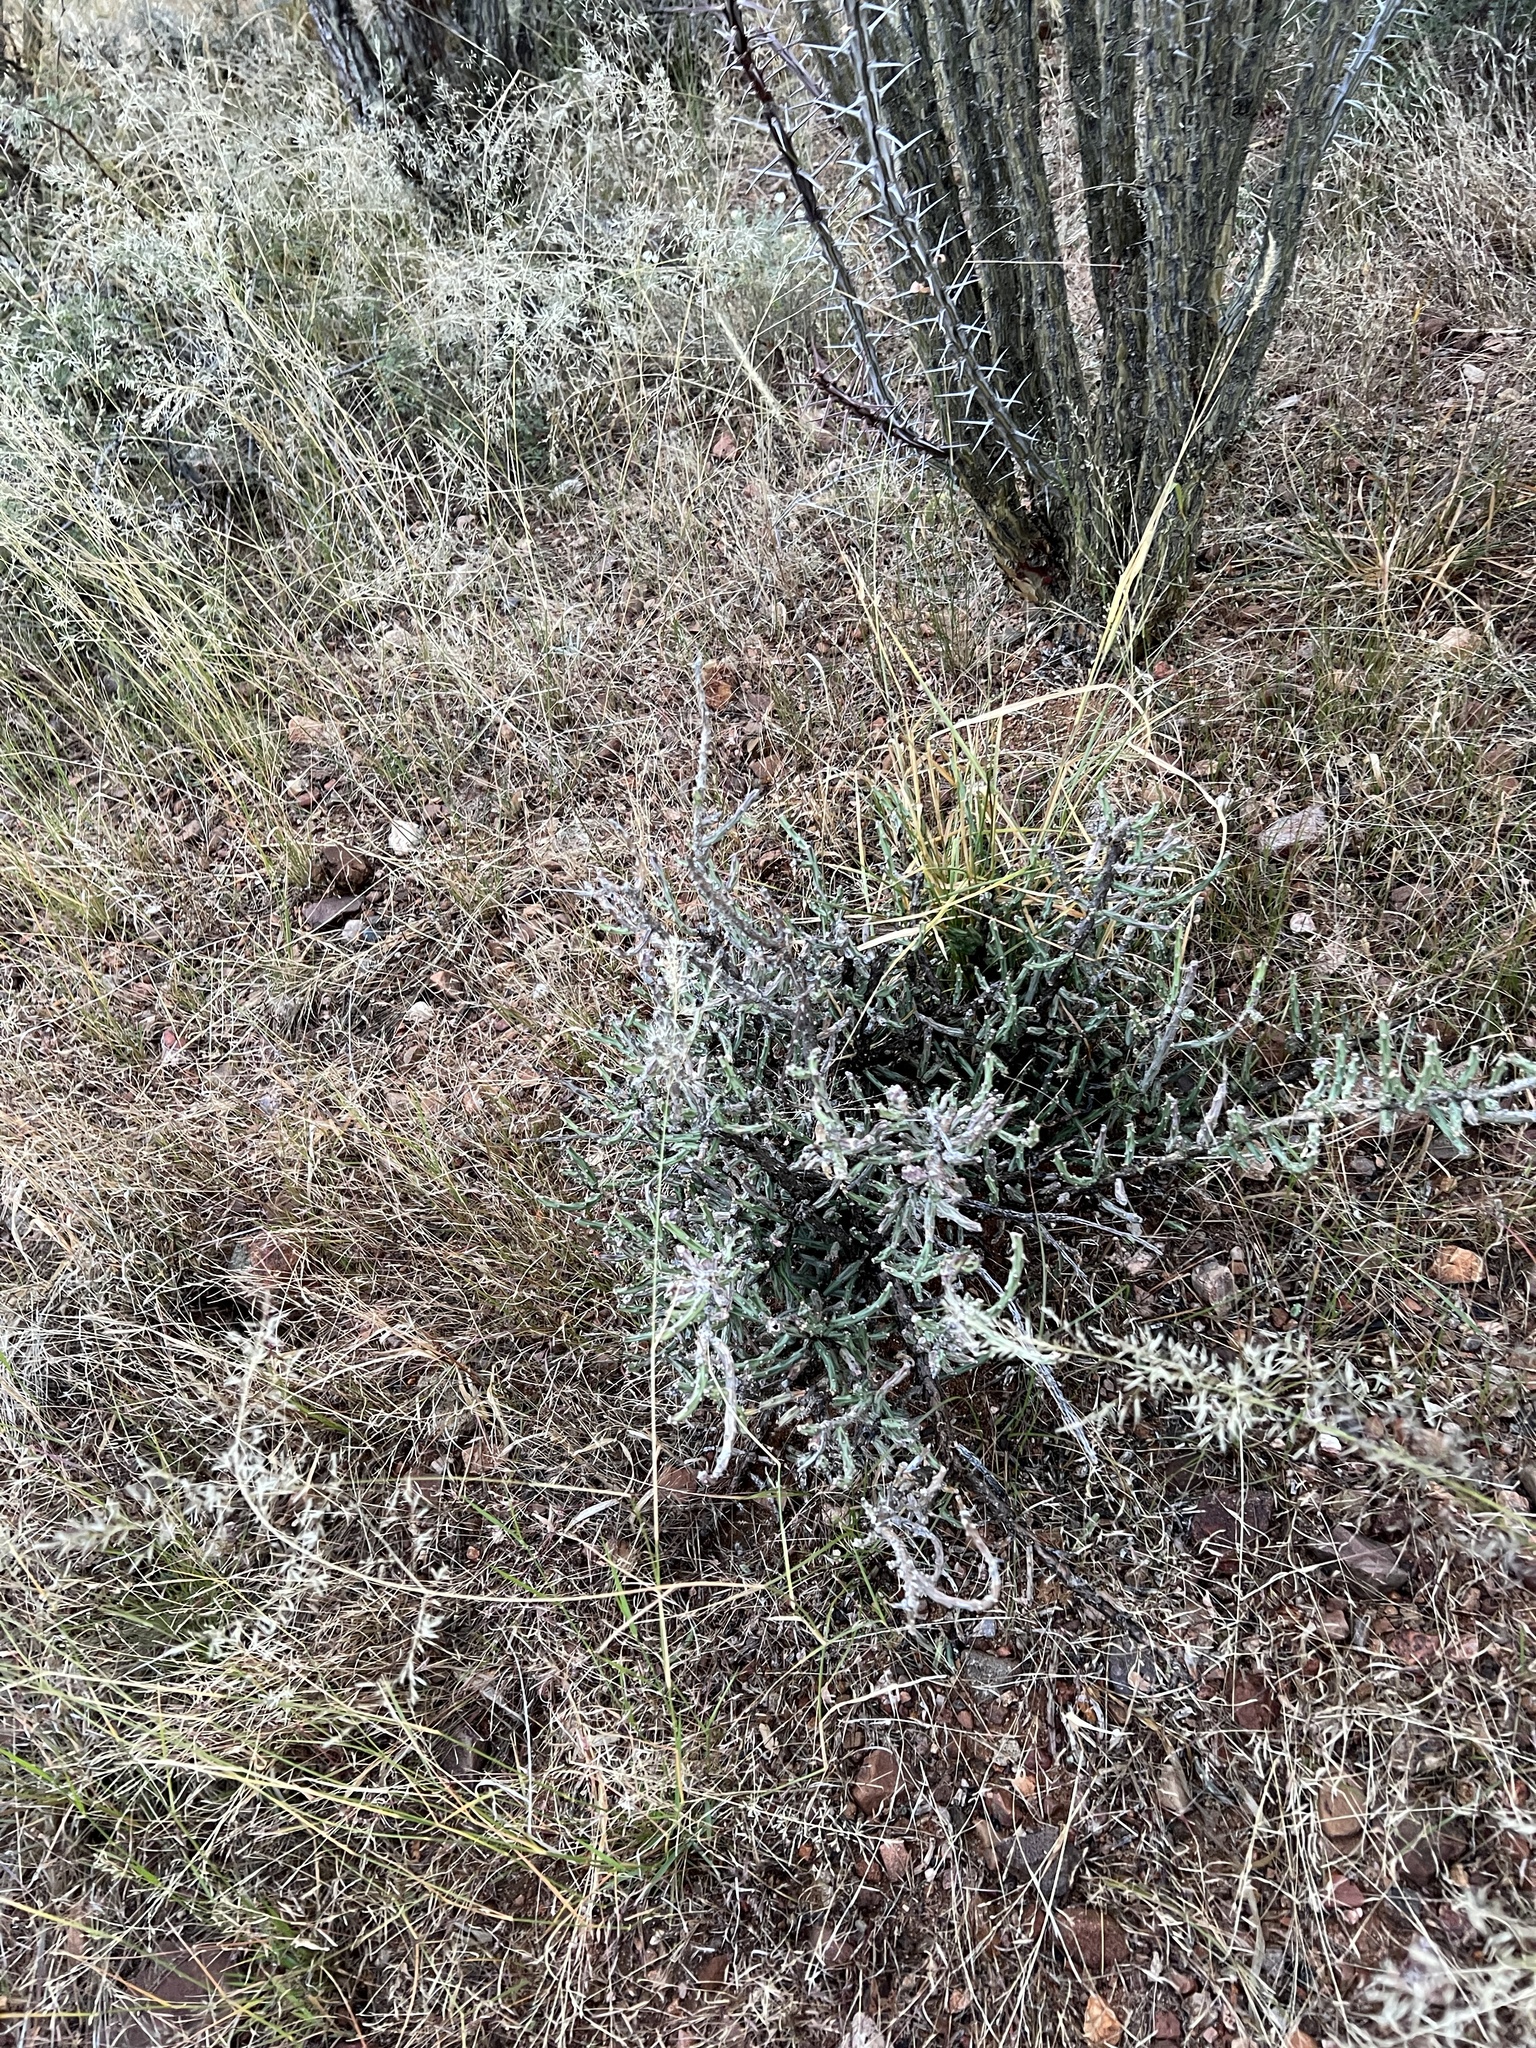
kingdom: Plantae
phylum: Tracheophyta
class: Magnoliopsida
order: Caryophyllales
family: Cactaceae
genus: Cylindropuntia
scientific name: Cylindropuntia leptocaulis
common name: Christmas cactus
